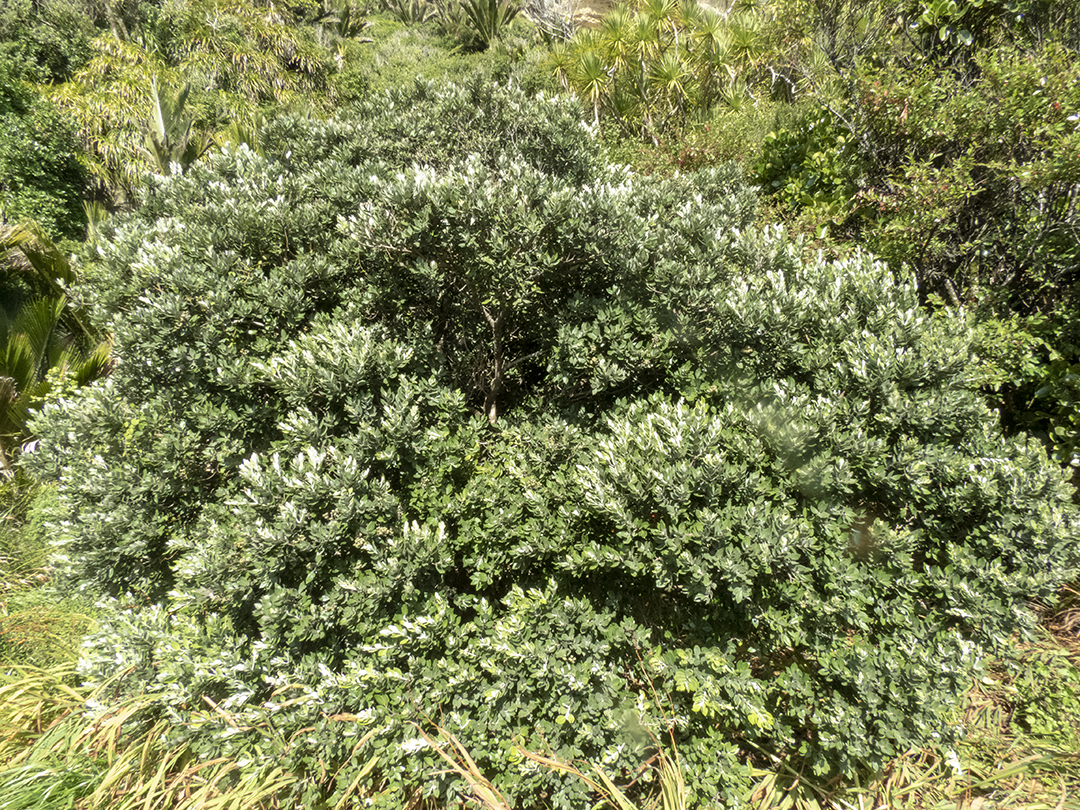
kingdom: Plantae
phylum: Tracheophyta
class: Magnoliopsida
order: Myrtales
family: Myrtaceae
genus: Metrosideros
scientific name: Metrosideros excelsa
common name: New zealand christmastree
